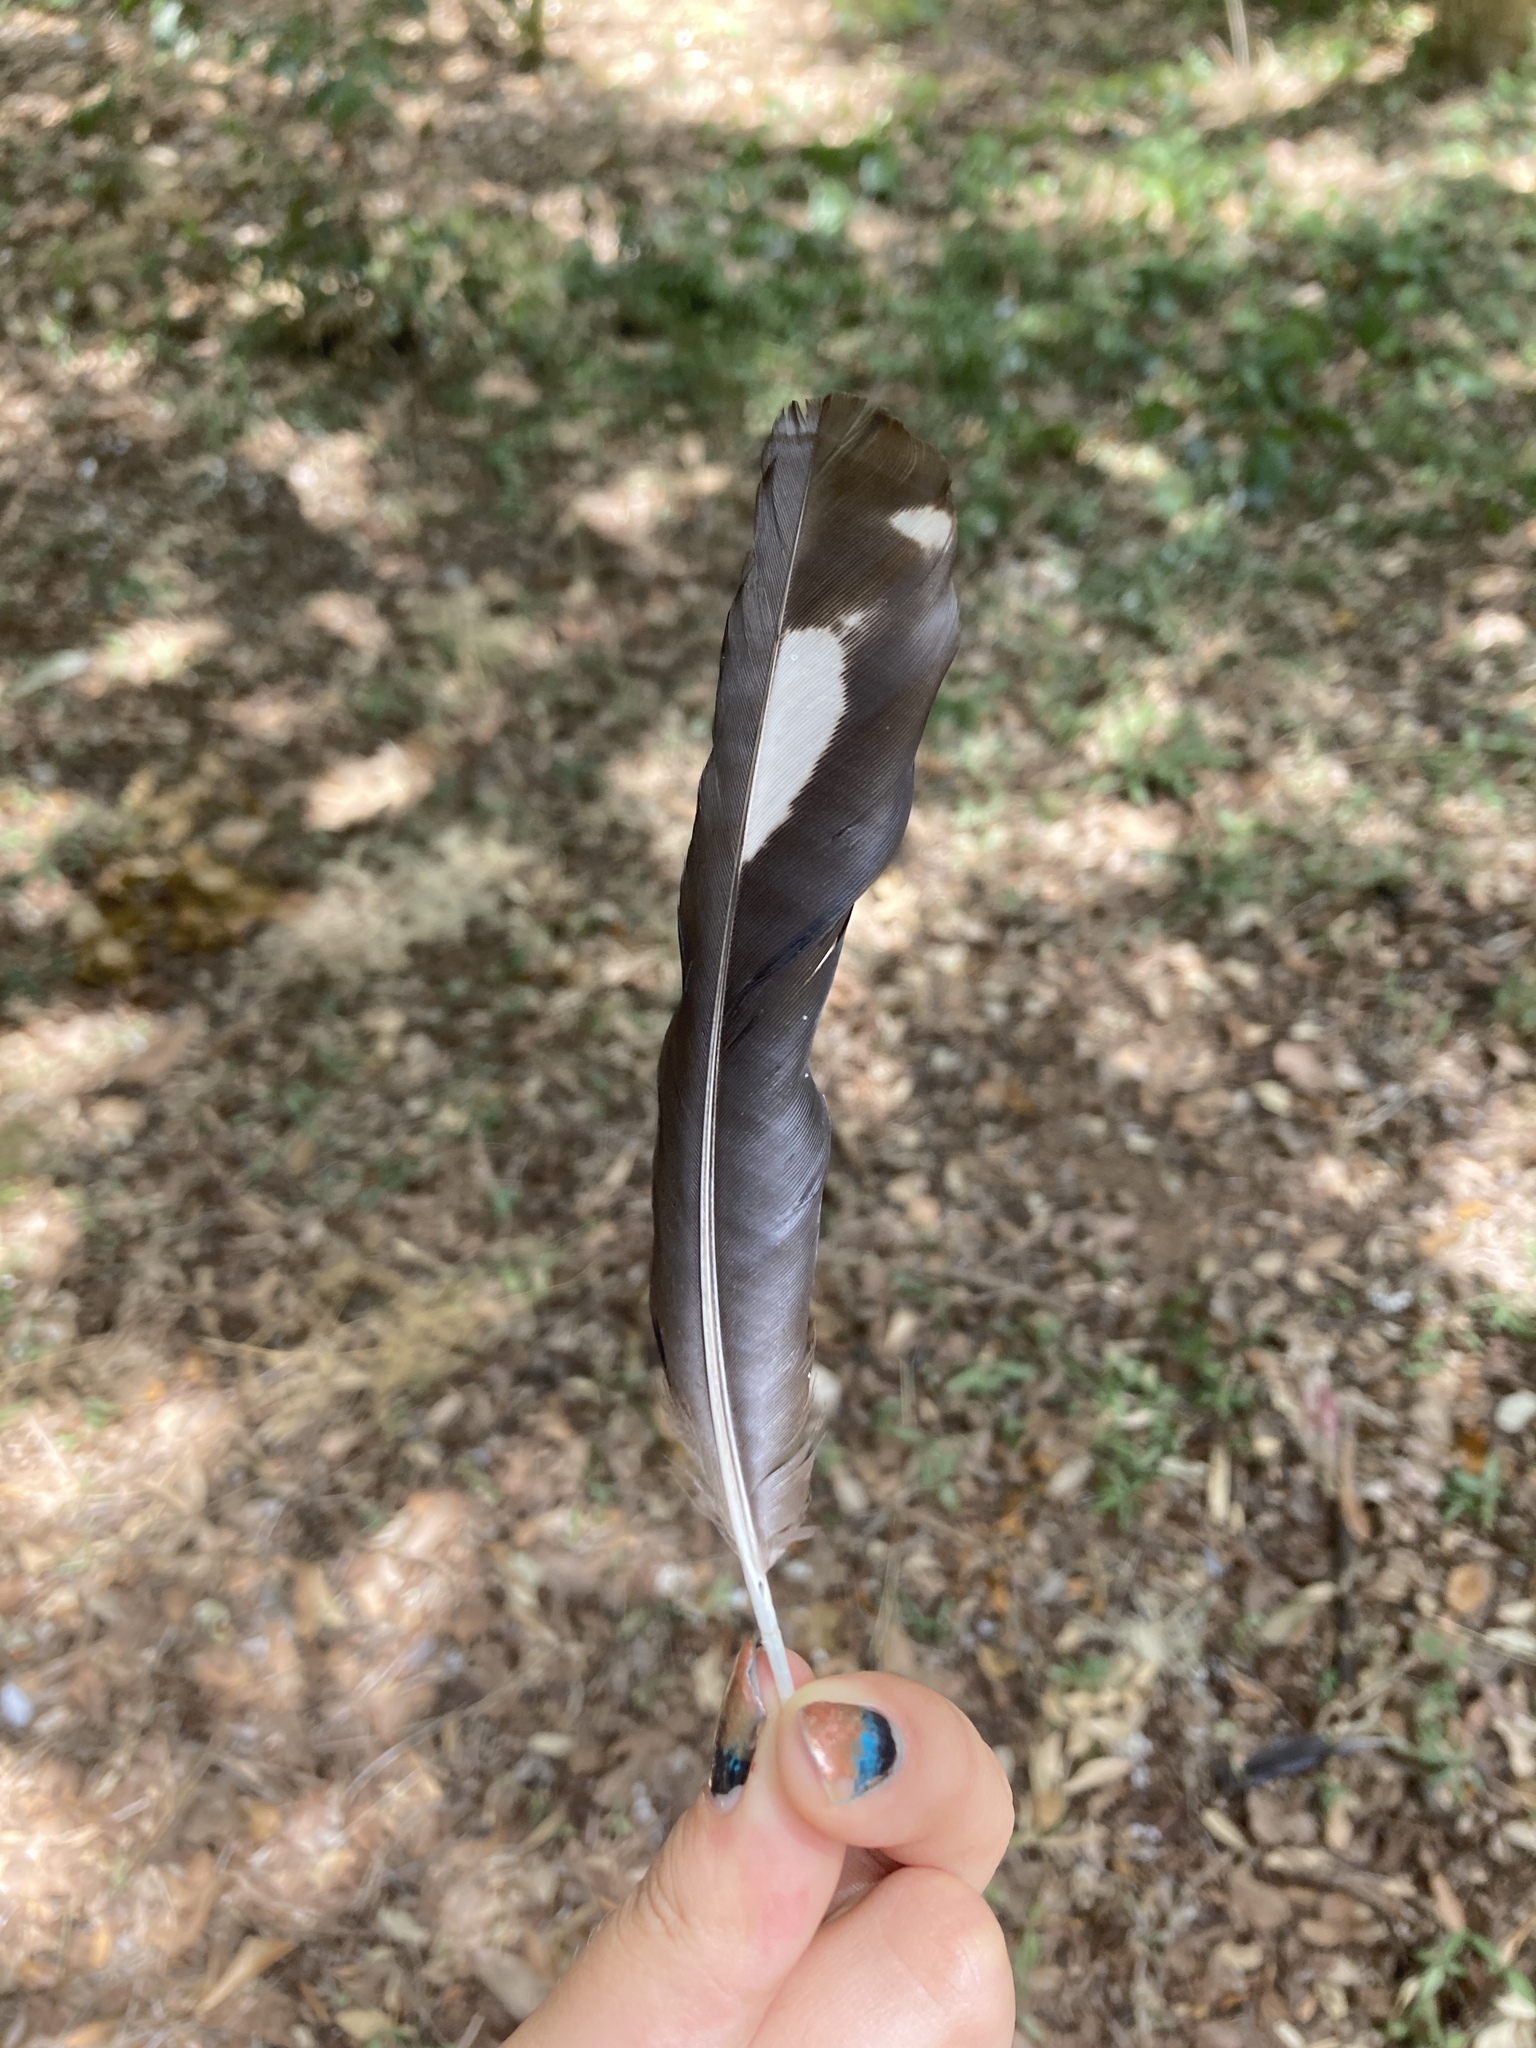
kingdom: Animalia
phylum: Chordata
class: Aves
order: Passeriformes
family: Corvidae
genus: Pica
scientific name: Pica pica
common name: Eurasian magpie
